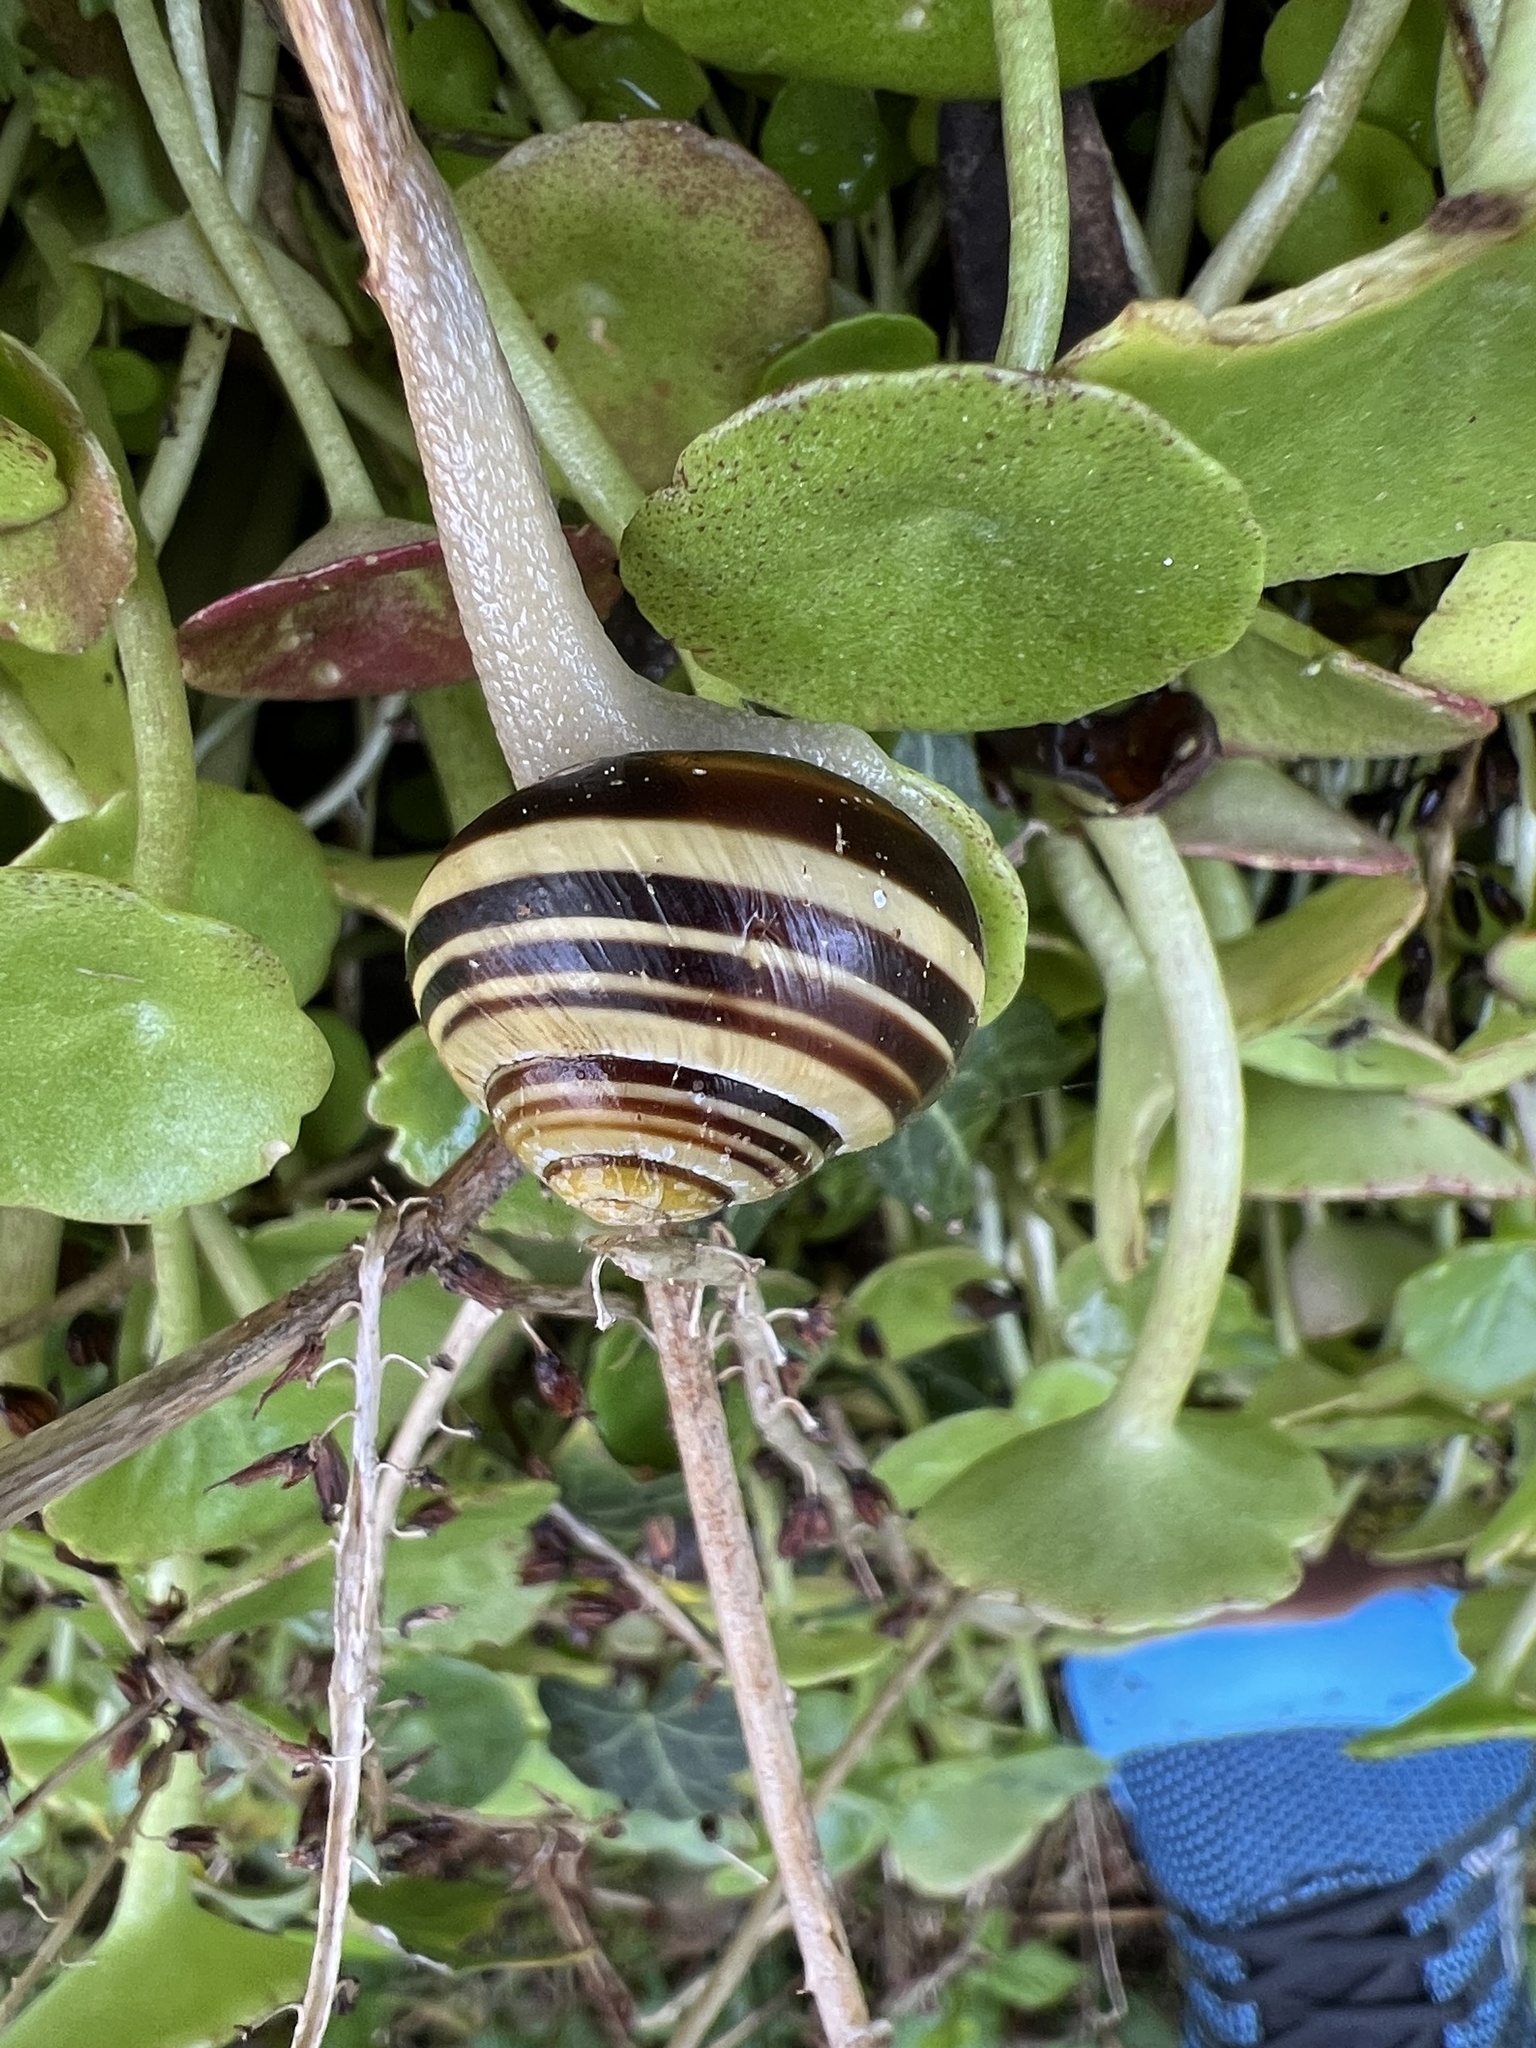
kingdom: Animalia
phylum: Mollusca
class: Gastropoda
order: Stylommatophora
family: Helicidae
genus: Cepaea
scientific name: Cepaea nemoralis
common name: Grovesnail
